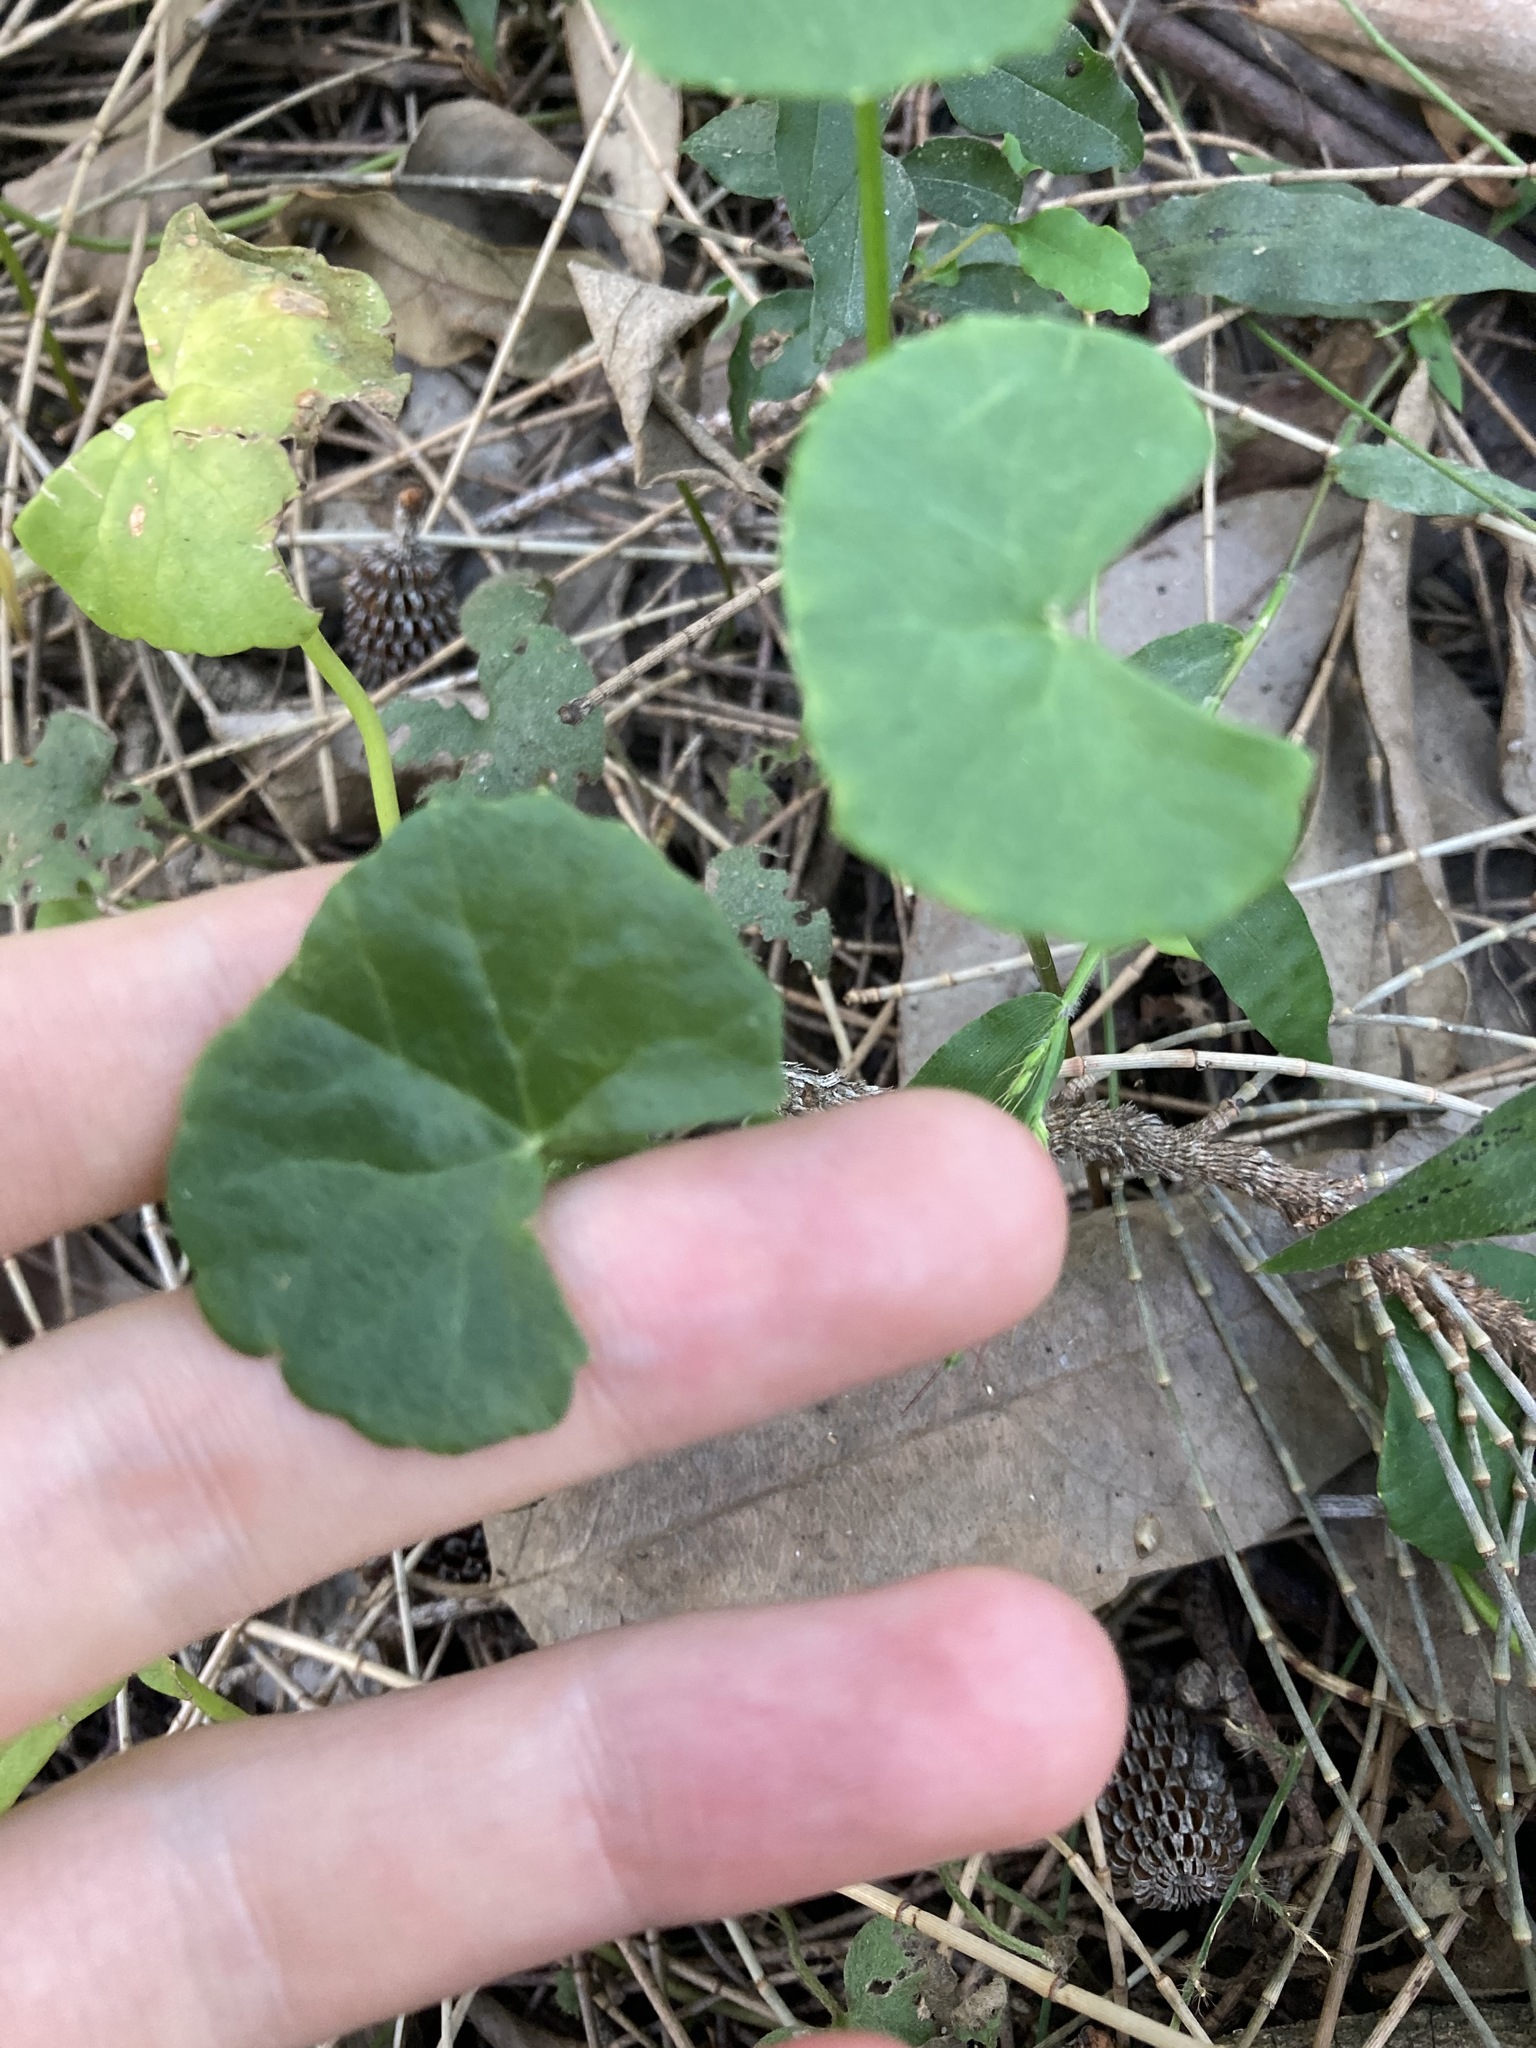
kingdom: Plantae
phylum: Tracheophyta
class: Magnoliopsida
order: Apiales
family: Apiaceae
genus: Centella
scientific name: Centella asiatica
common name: Spadeleaf
